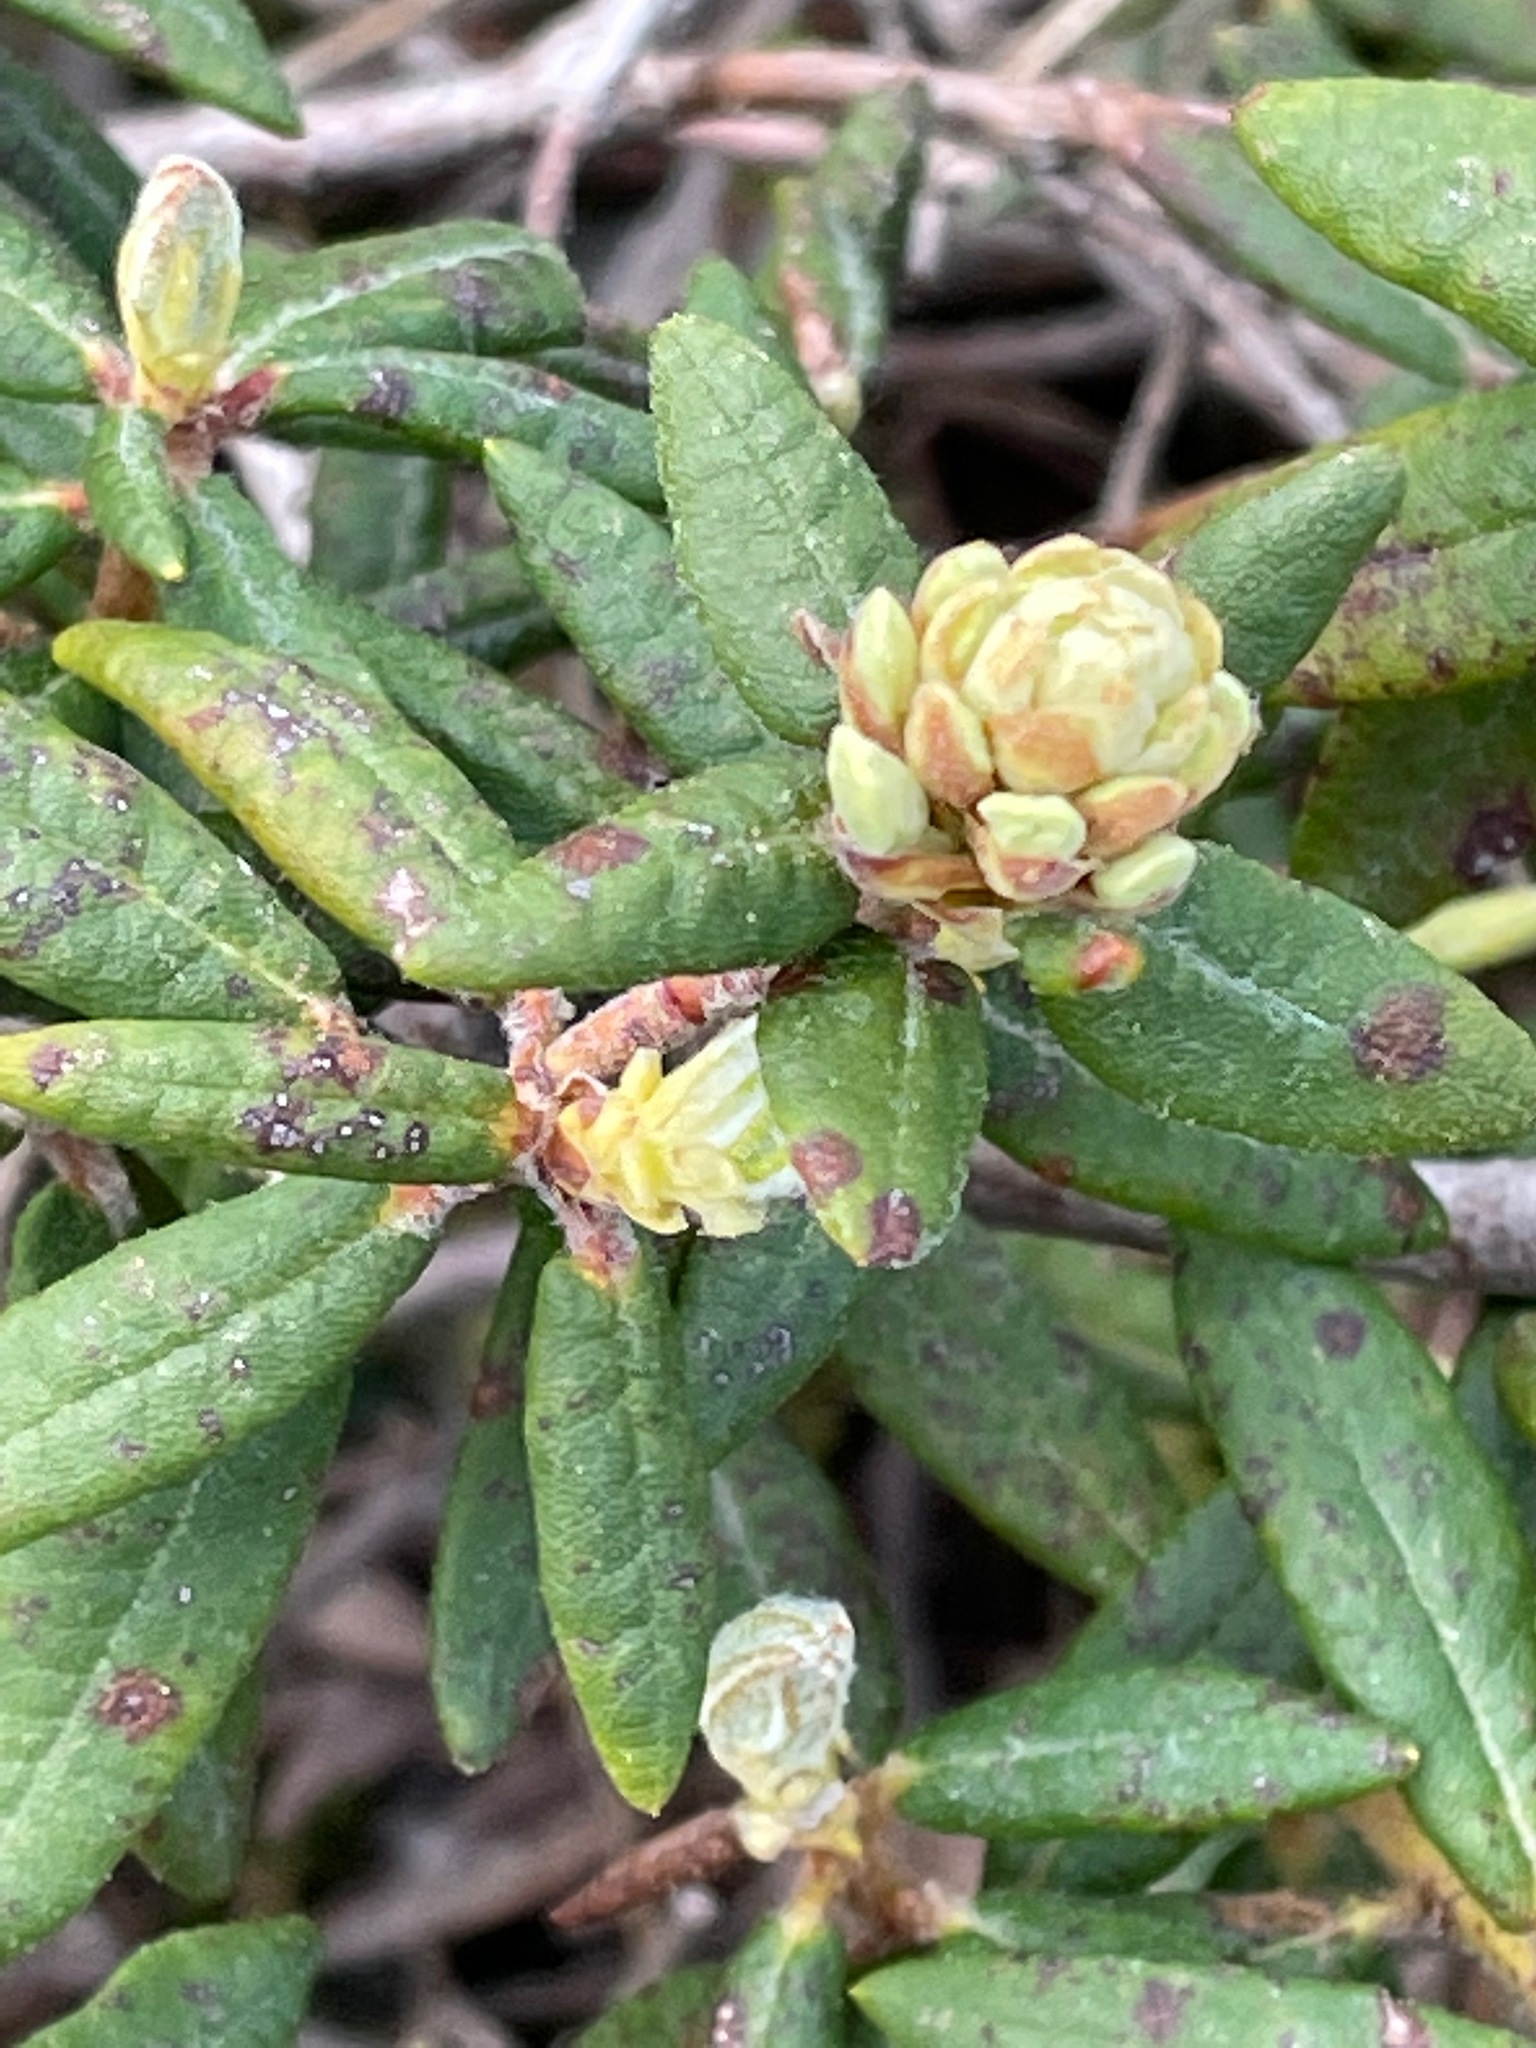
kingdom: Plantae
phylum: Tracheophyta
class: Magnoliopsida
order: Ericales
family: Ericaceae
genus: Rhododendron
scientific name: Rhododendron groenlandicum
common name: Bog labrador tea
